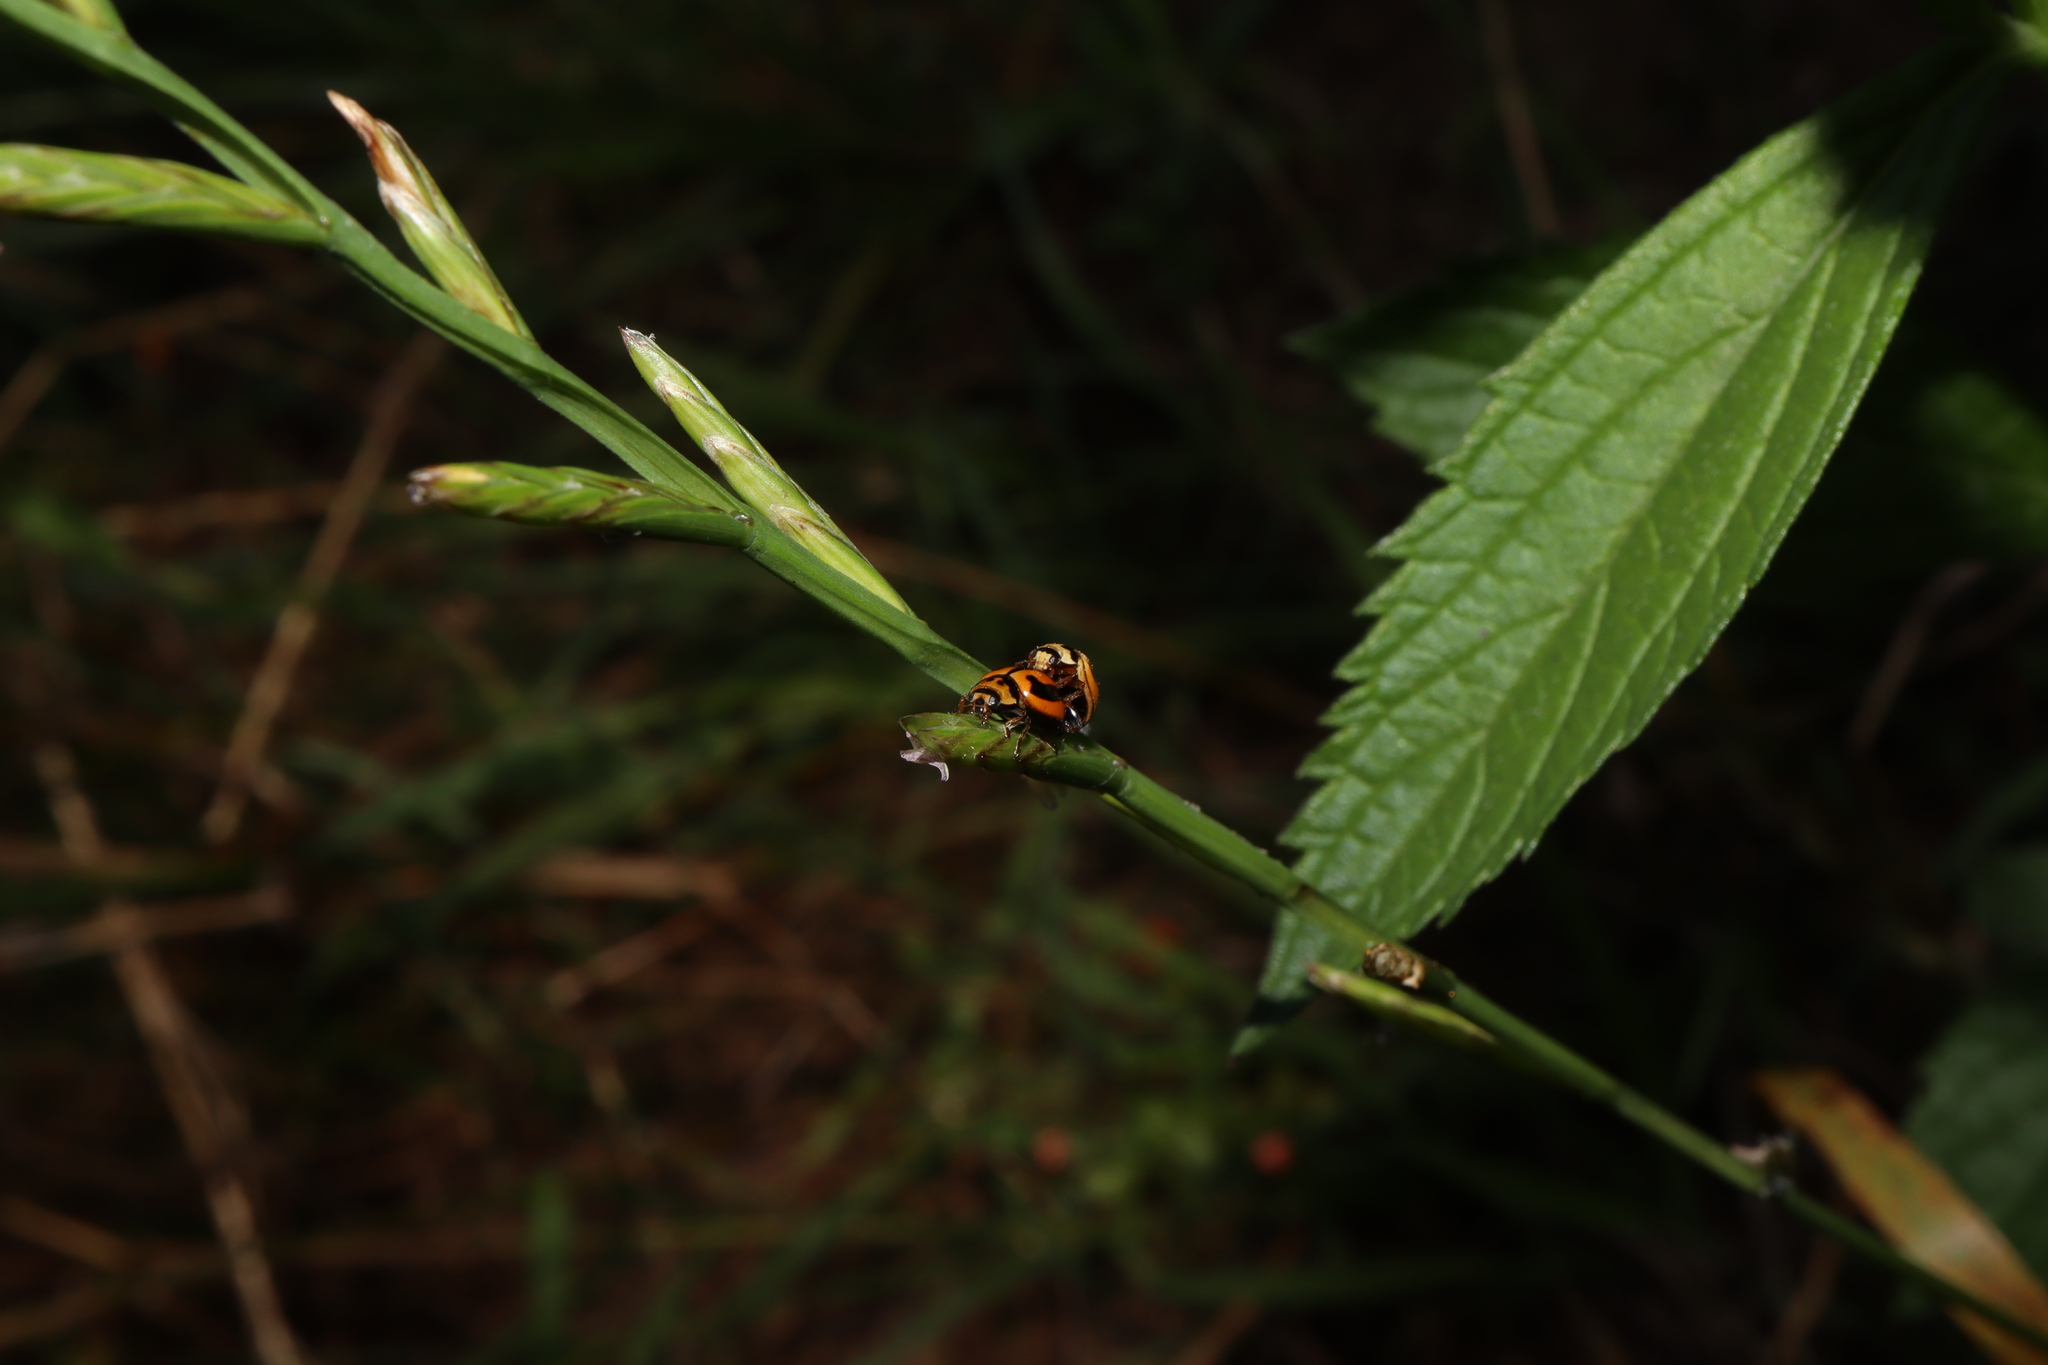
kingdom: Animalia
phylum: Arthropoda
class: Insecta
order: Coleoptera
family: Coccinellidae
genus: Micraspis
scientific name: Micraspis frenata
